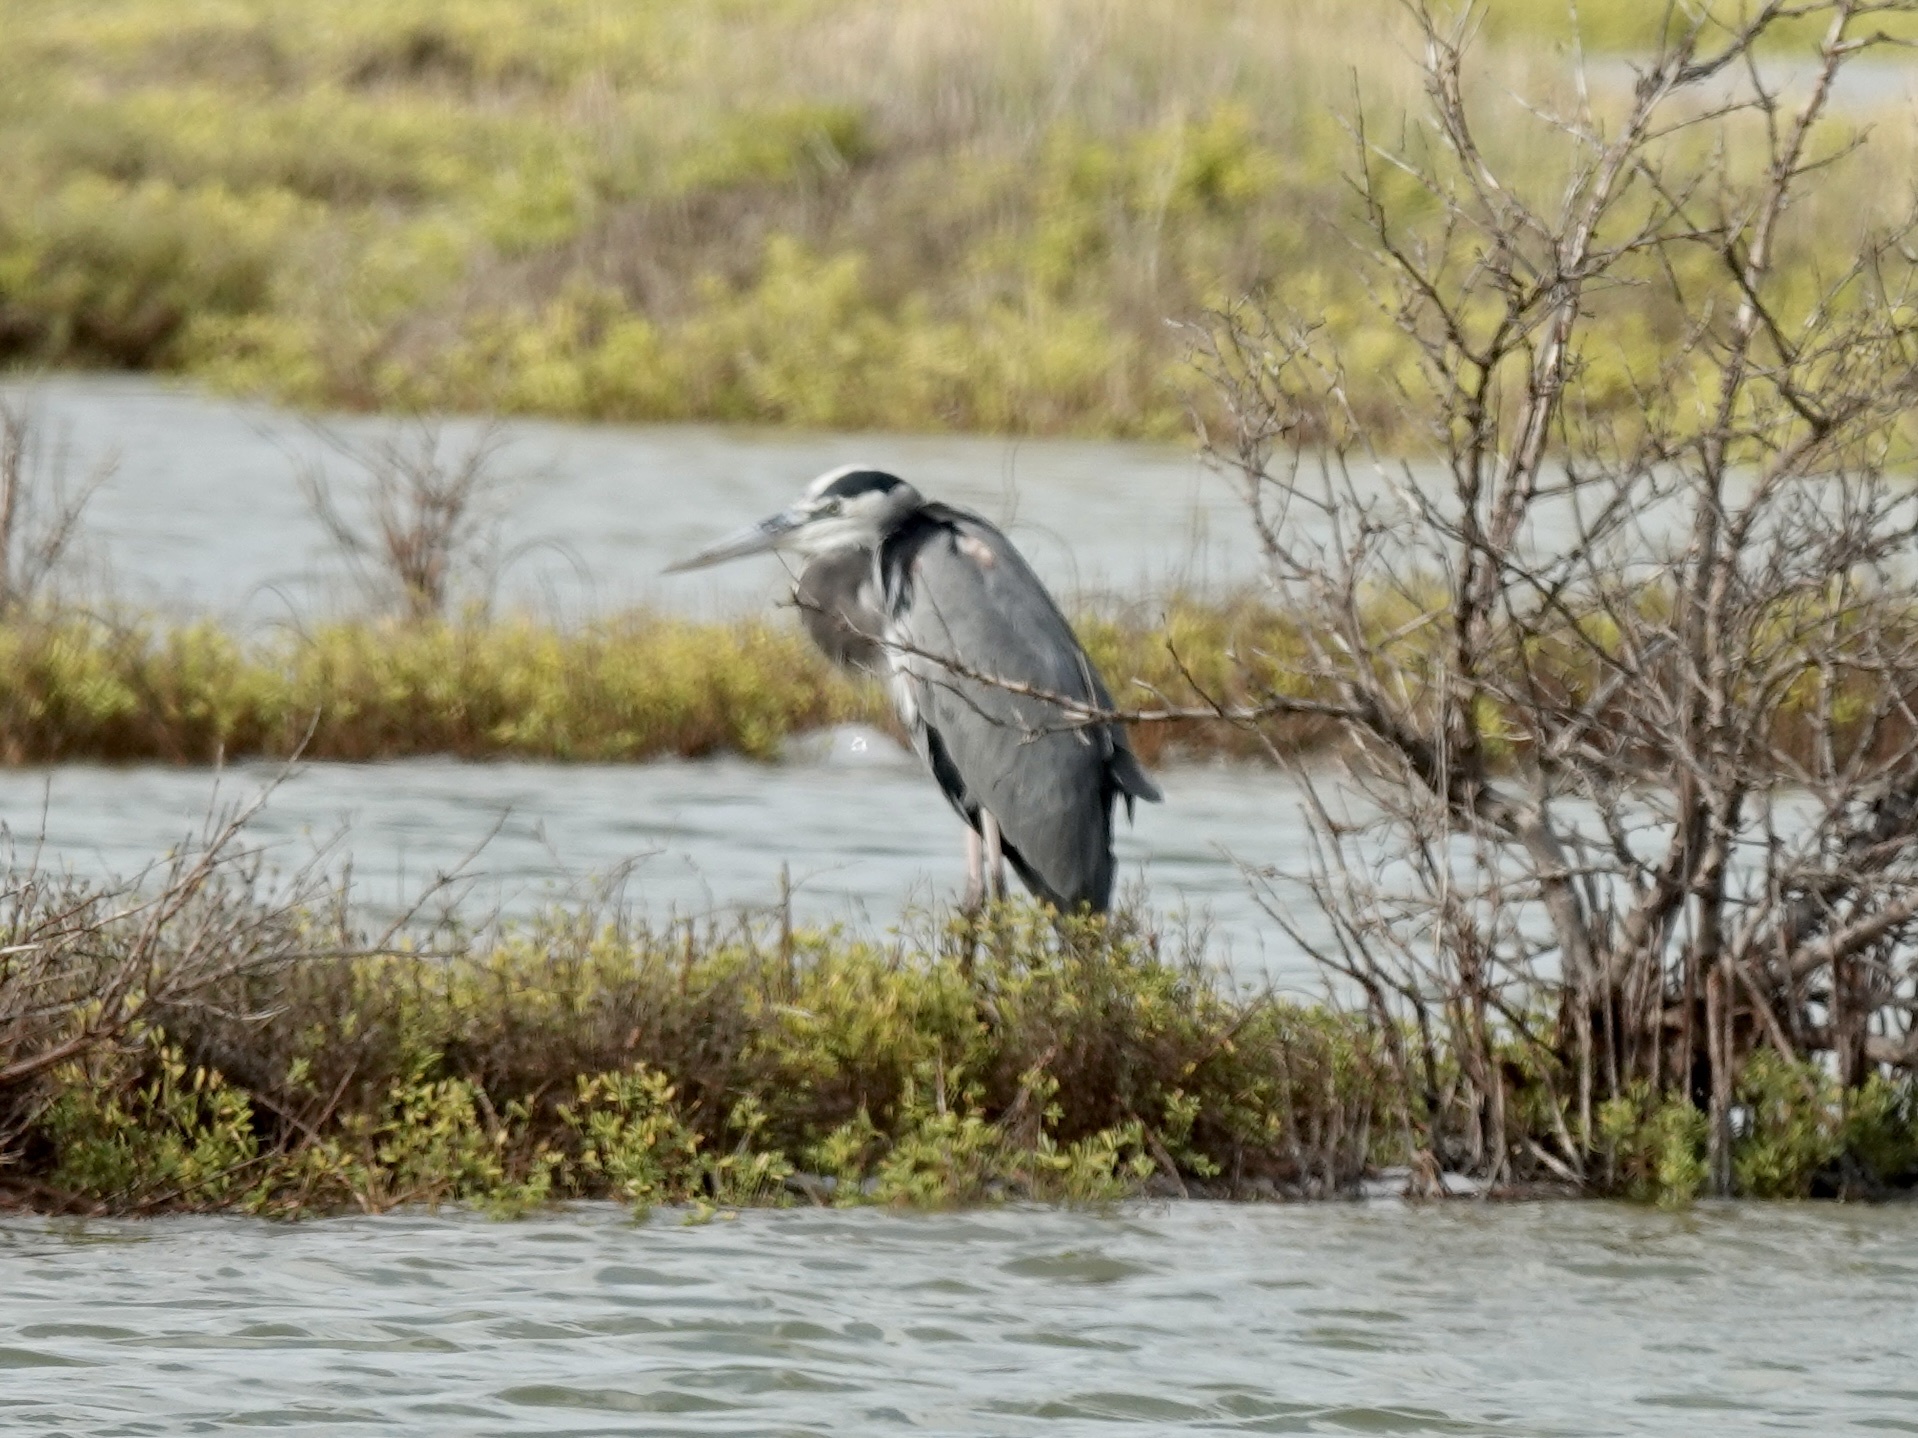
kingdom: Animalia
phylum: Chordata
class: Aves
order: Pelecaniformes
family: Ardeidae
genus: Ardea
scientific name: Ardea herodias
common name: Great blue heron
